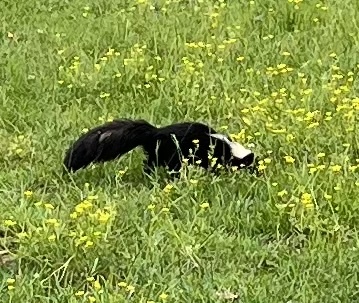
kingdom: Animalia
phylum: Chordata
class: Mammalia
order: Carnivora
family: Mephitidae
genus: Mephitis
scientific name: Mephitis mephitis
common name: Striped skunk
